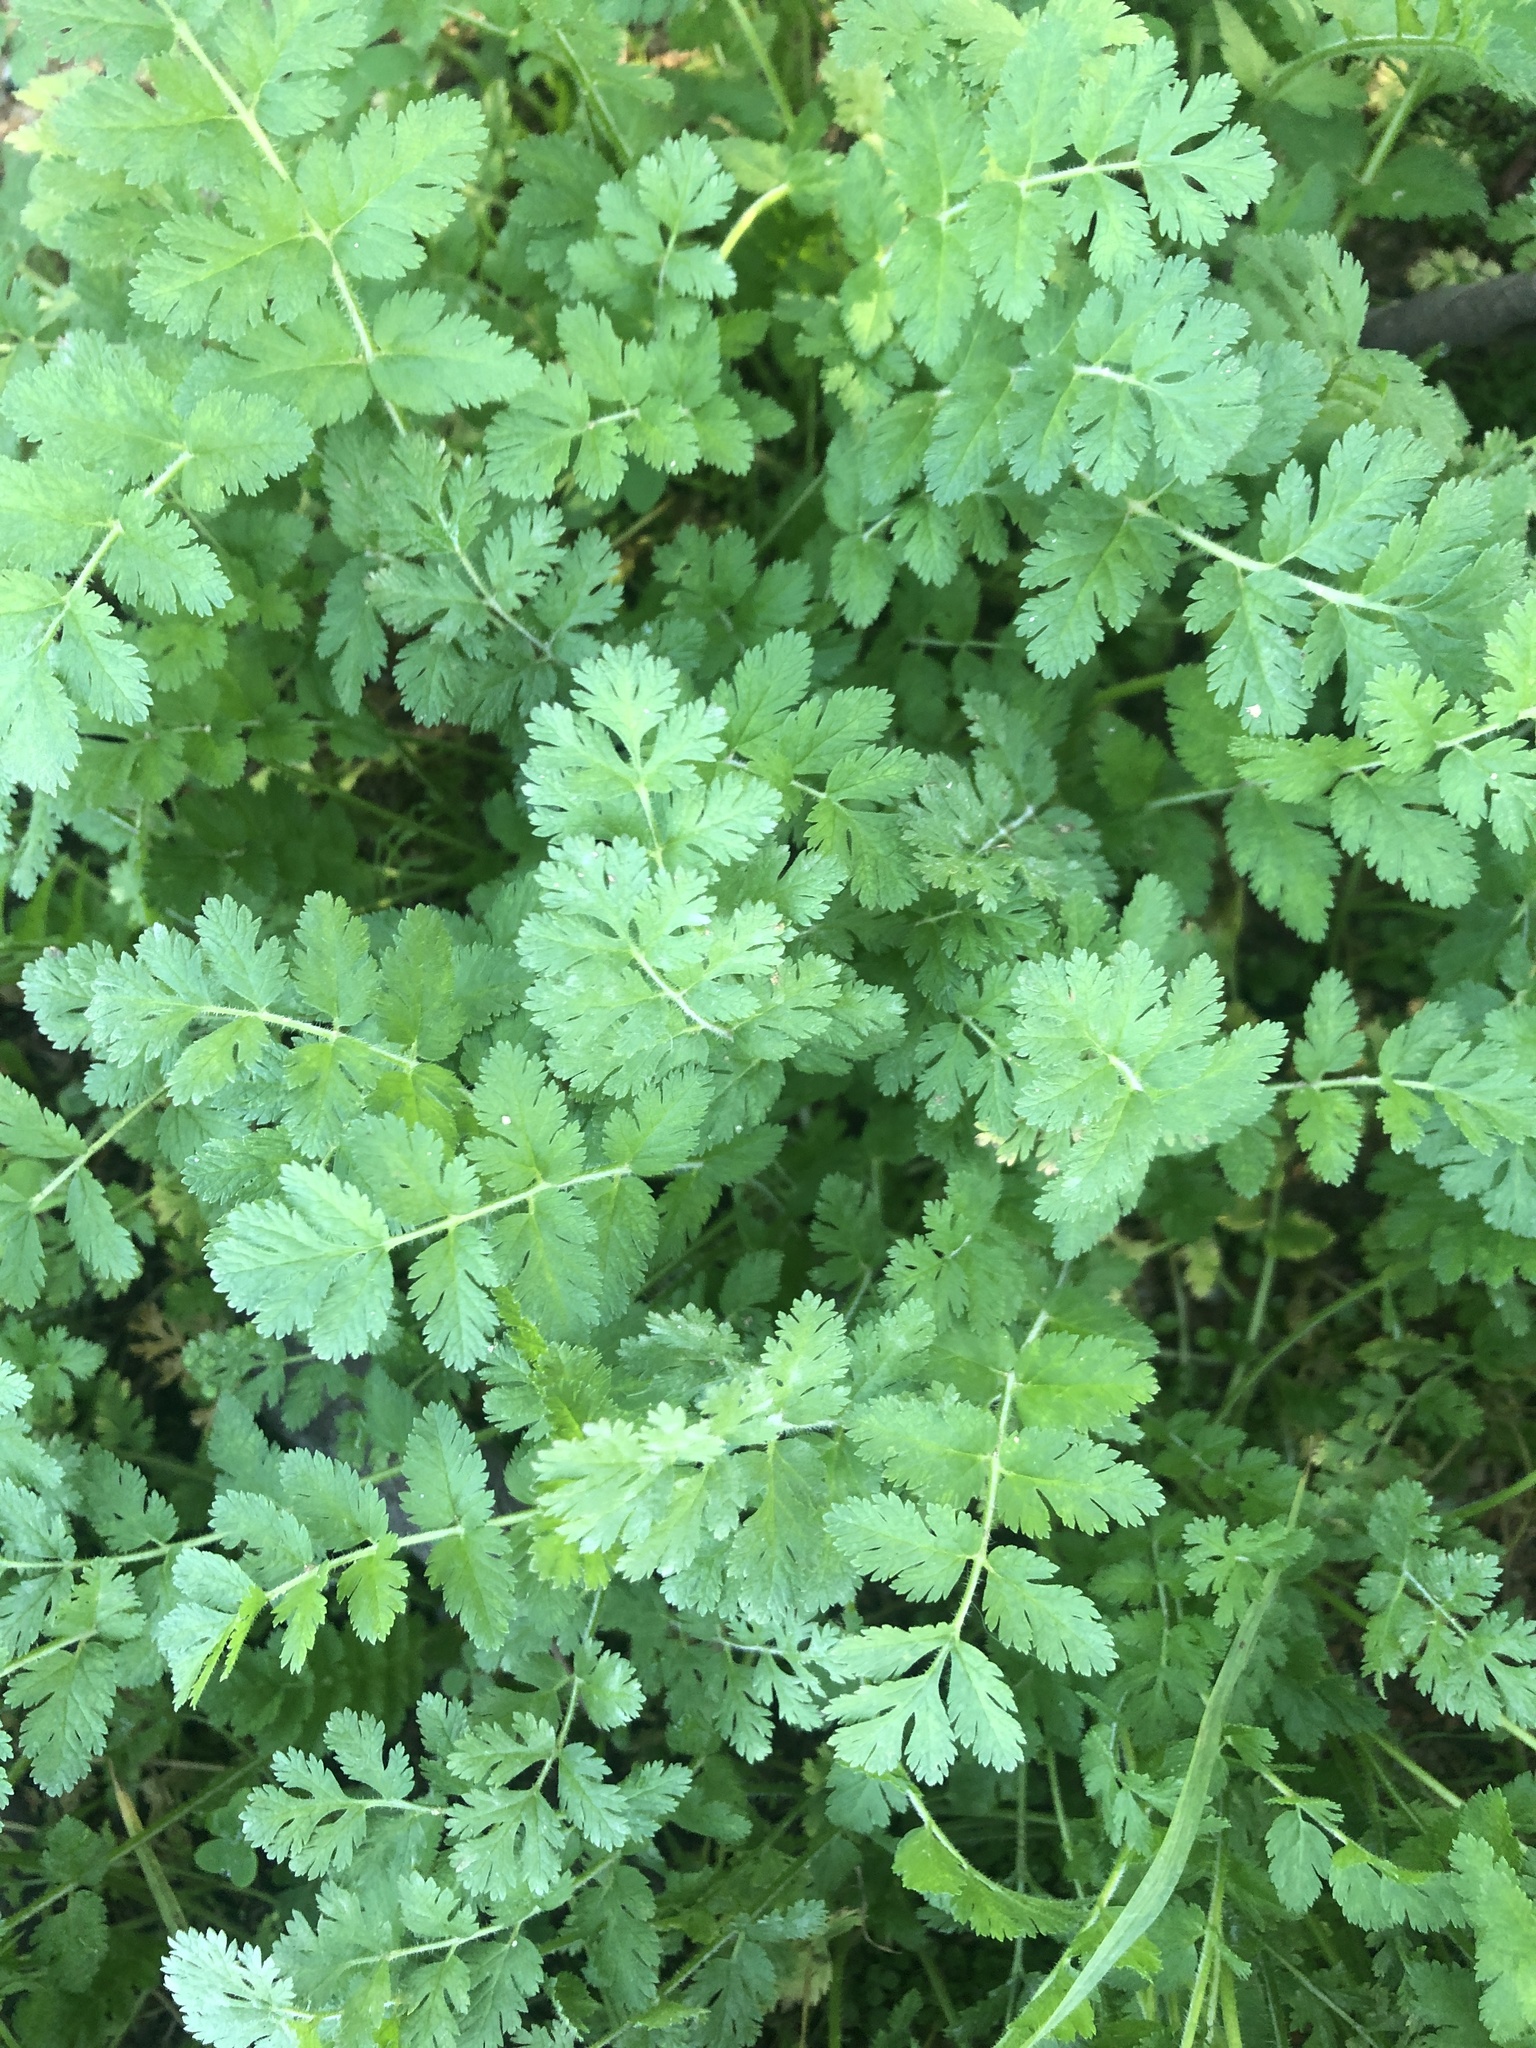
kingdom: Plantae
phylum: Tracheophyta
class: Magnoliopsida
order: Geraniales
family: Geraniaceae
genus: Erodium
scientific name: Erodium moschatum
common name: Musk stork's-bill
